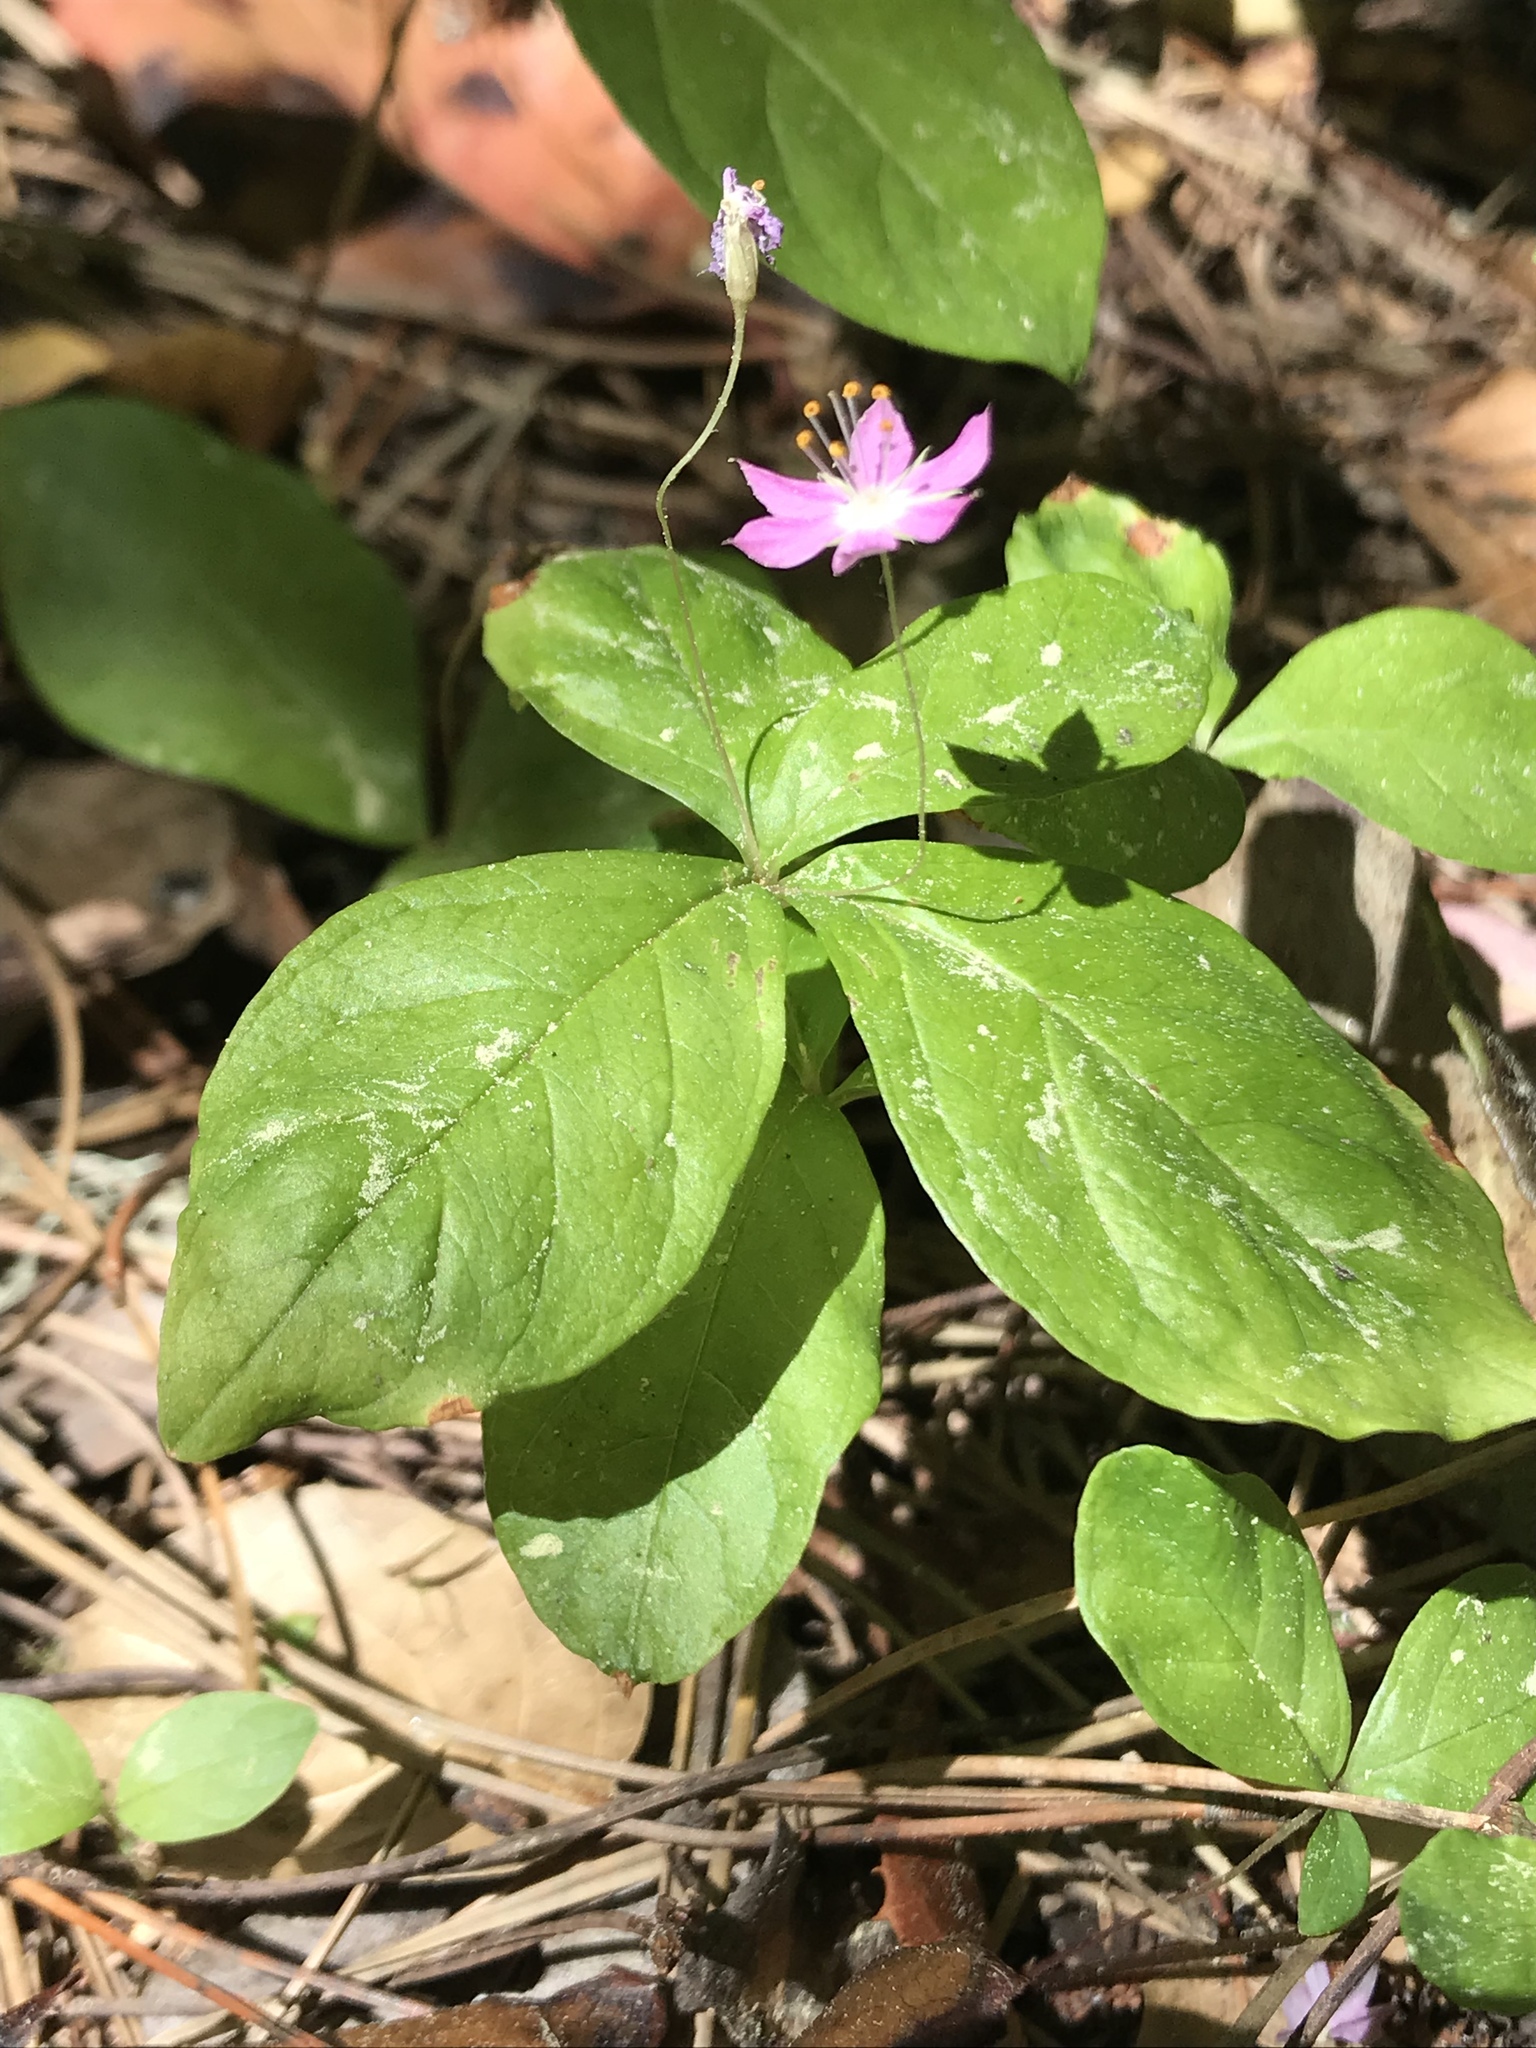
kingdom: Plantae
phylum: Tracheophyta
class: Magnoliopsida
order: Ericales
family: Primulaceae
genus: Lysimachia
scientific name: Lysimachia latifolia
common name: Pacific starflower
